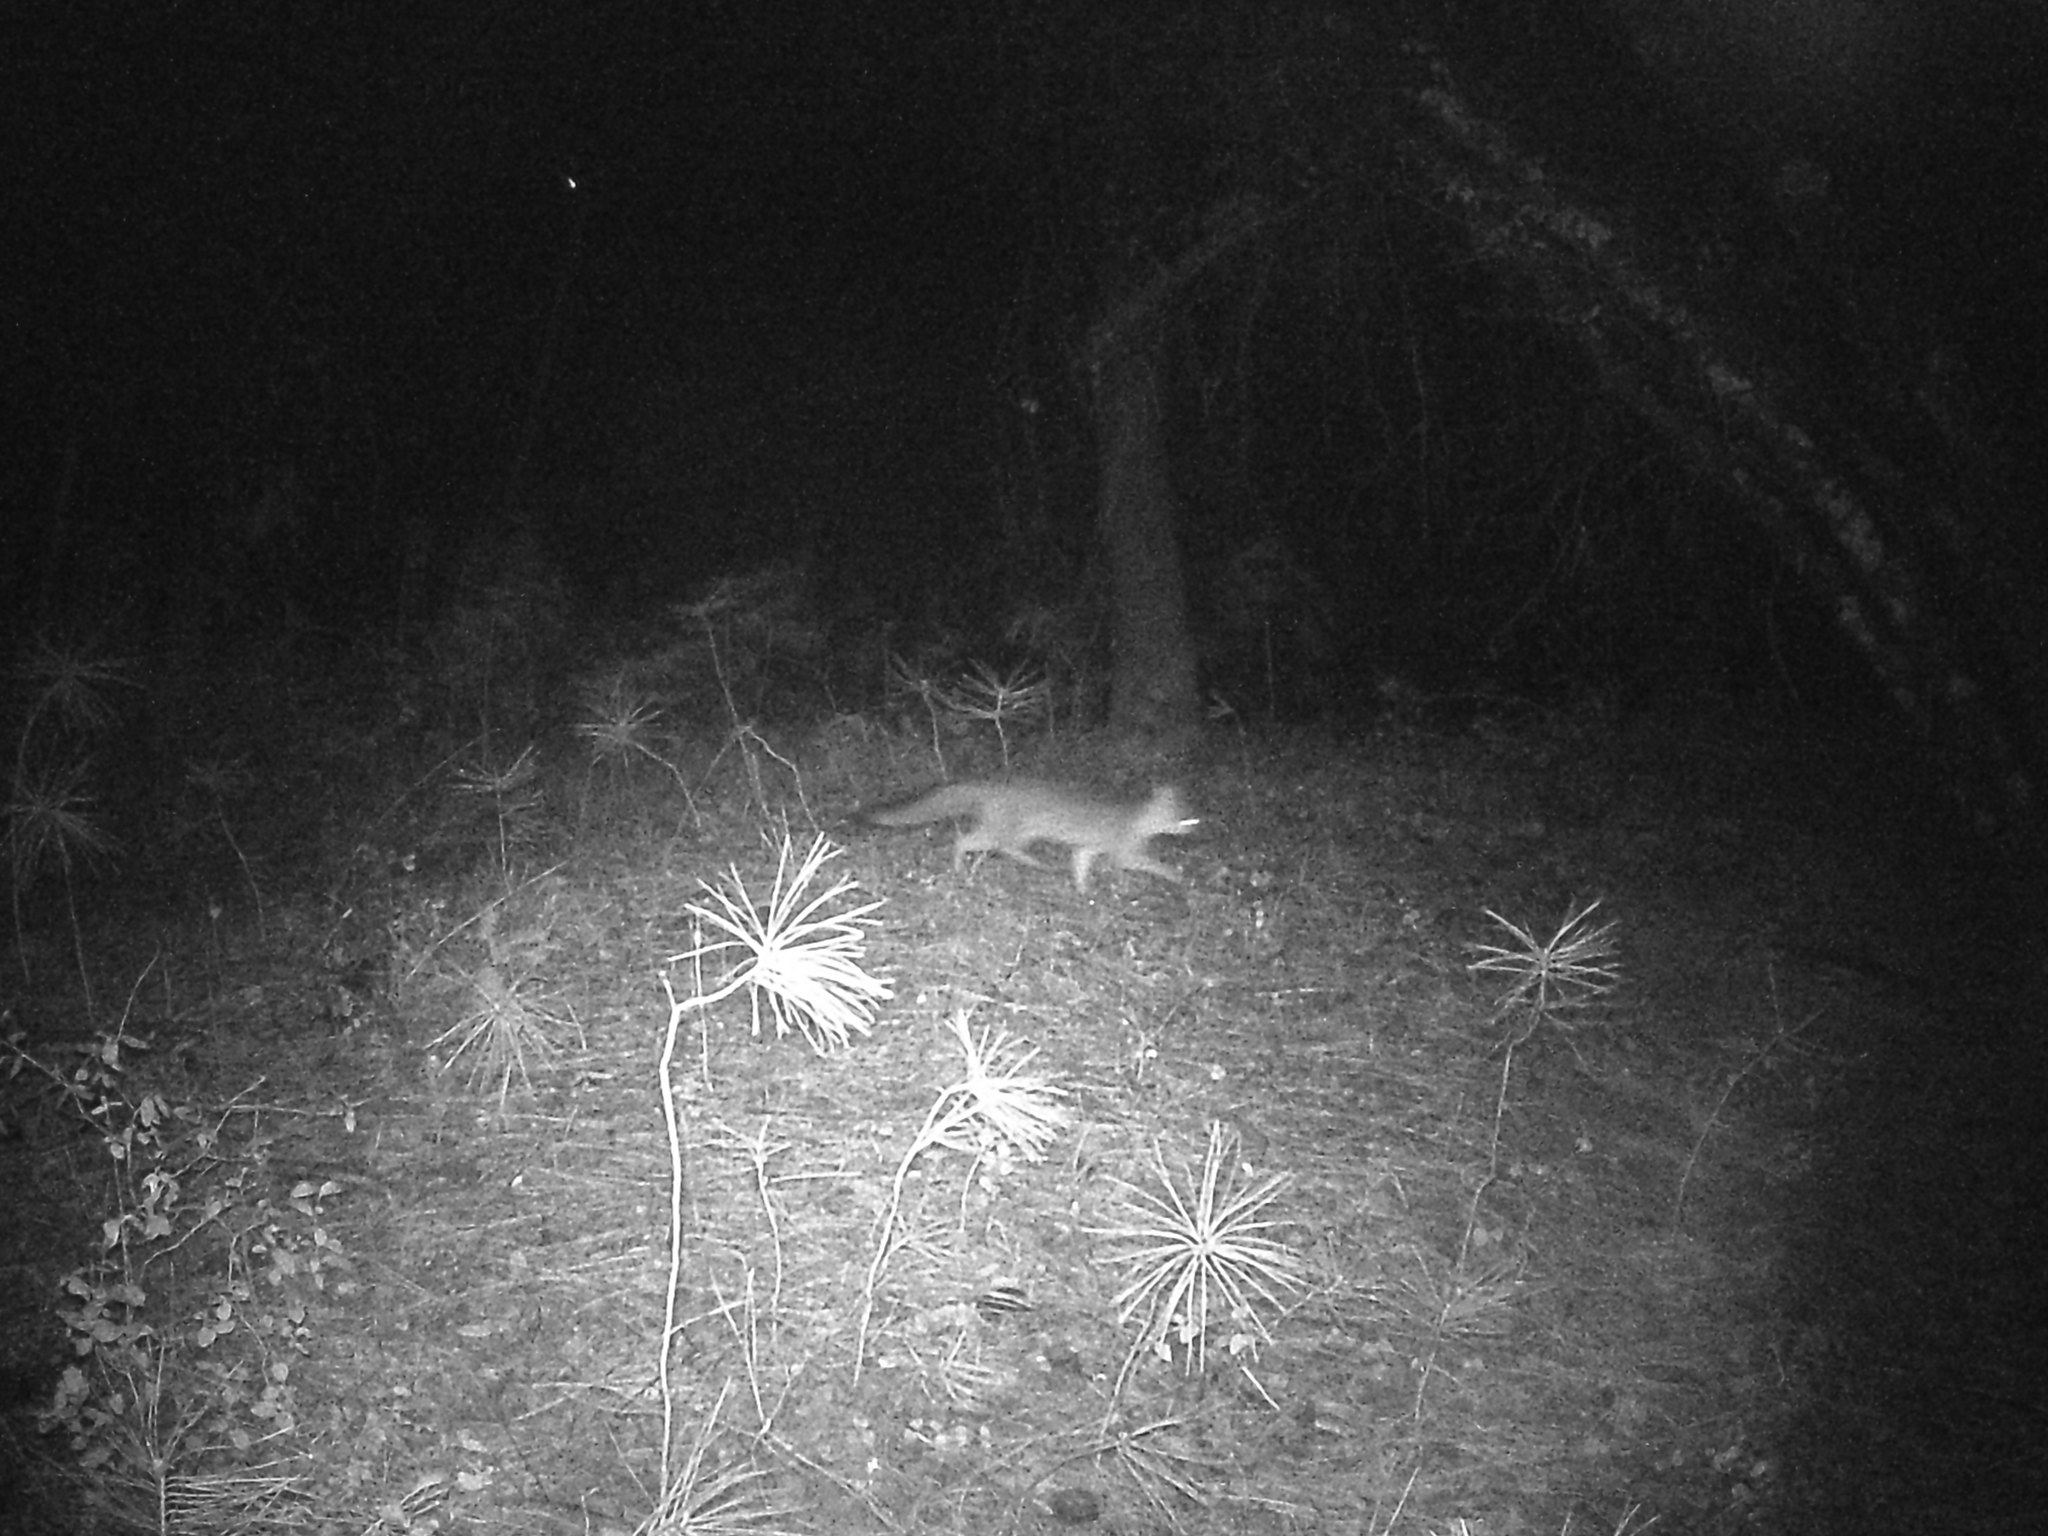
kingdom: Animalia
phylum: Chordata
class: Mammalia
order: Carnivora
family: Canidae
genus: Urocyon
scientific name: Urocyon cinereoargenteus
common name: Gray fox
